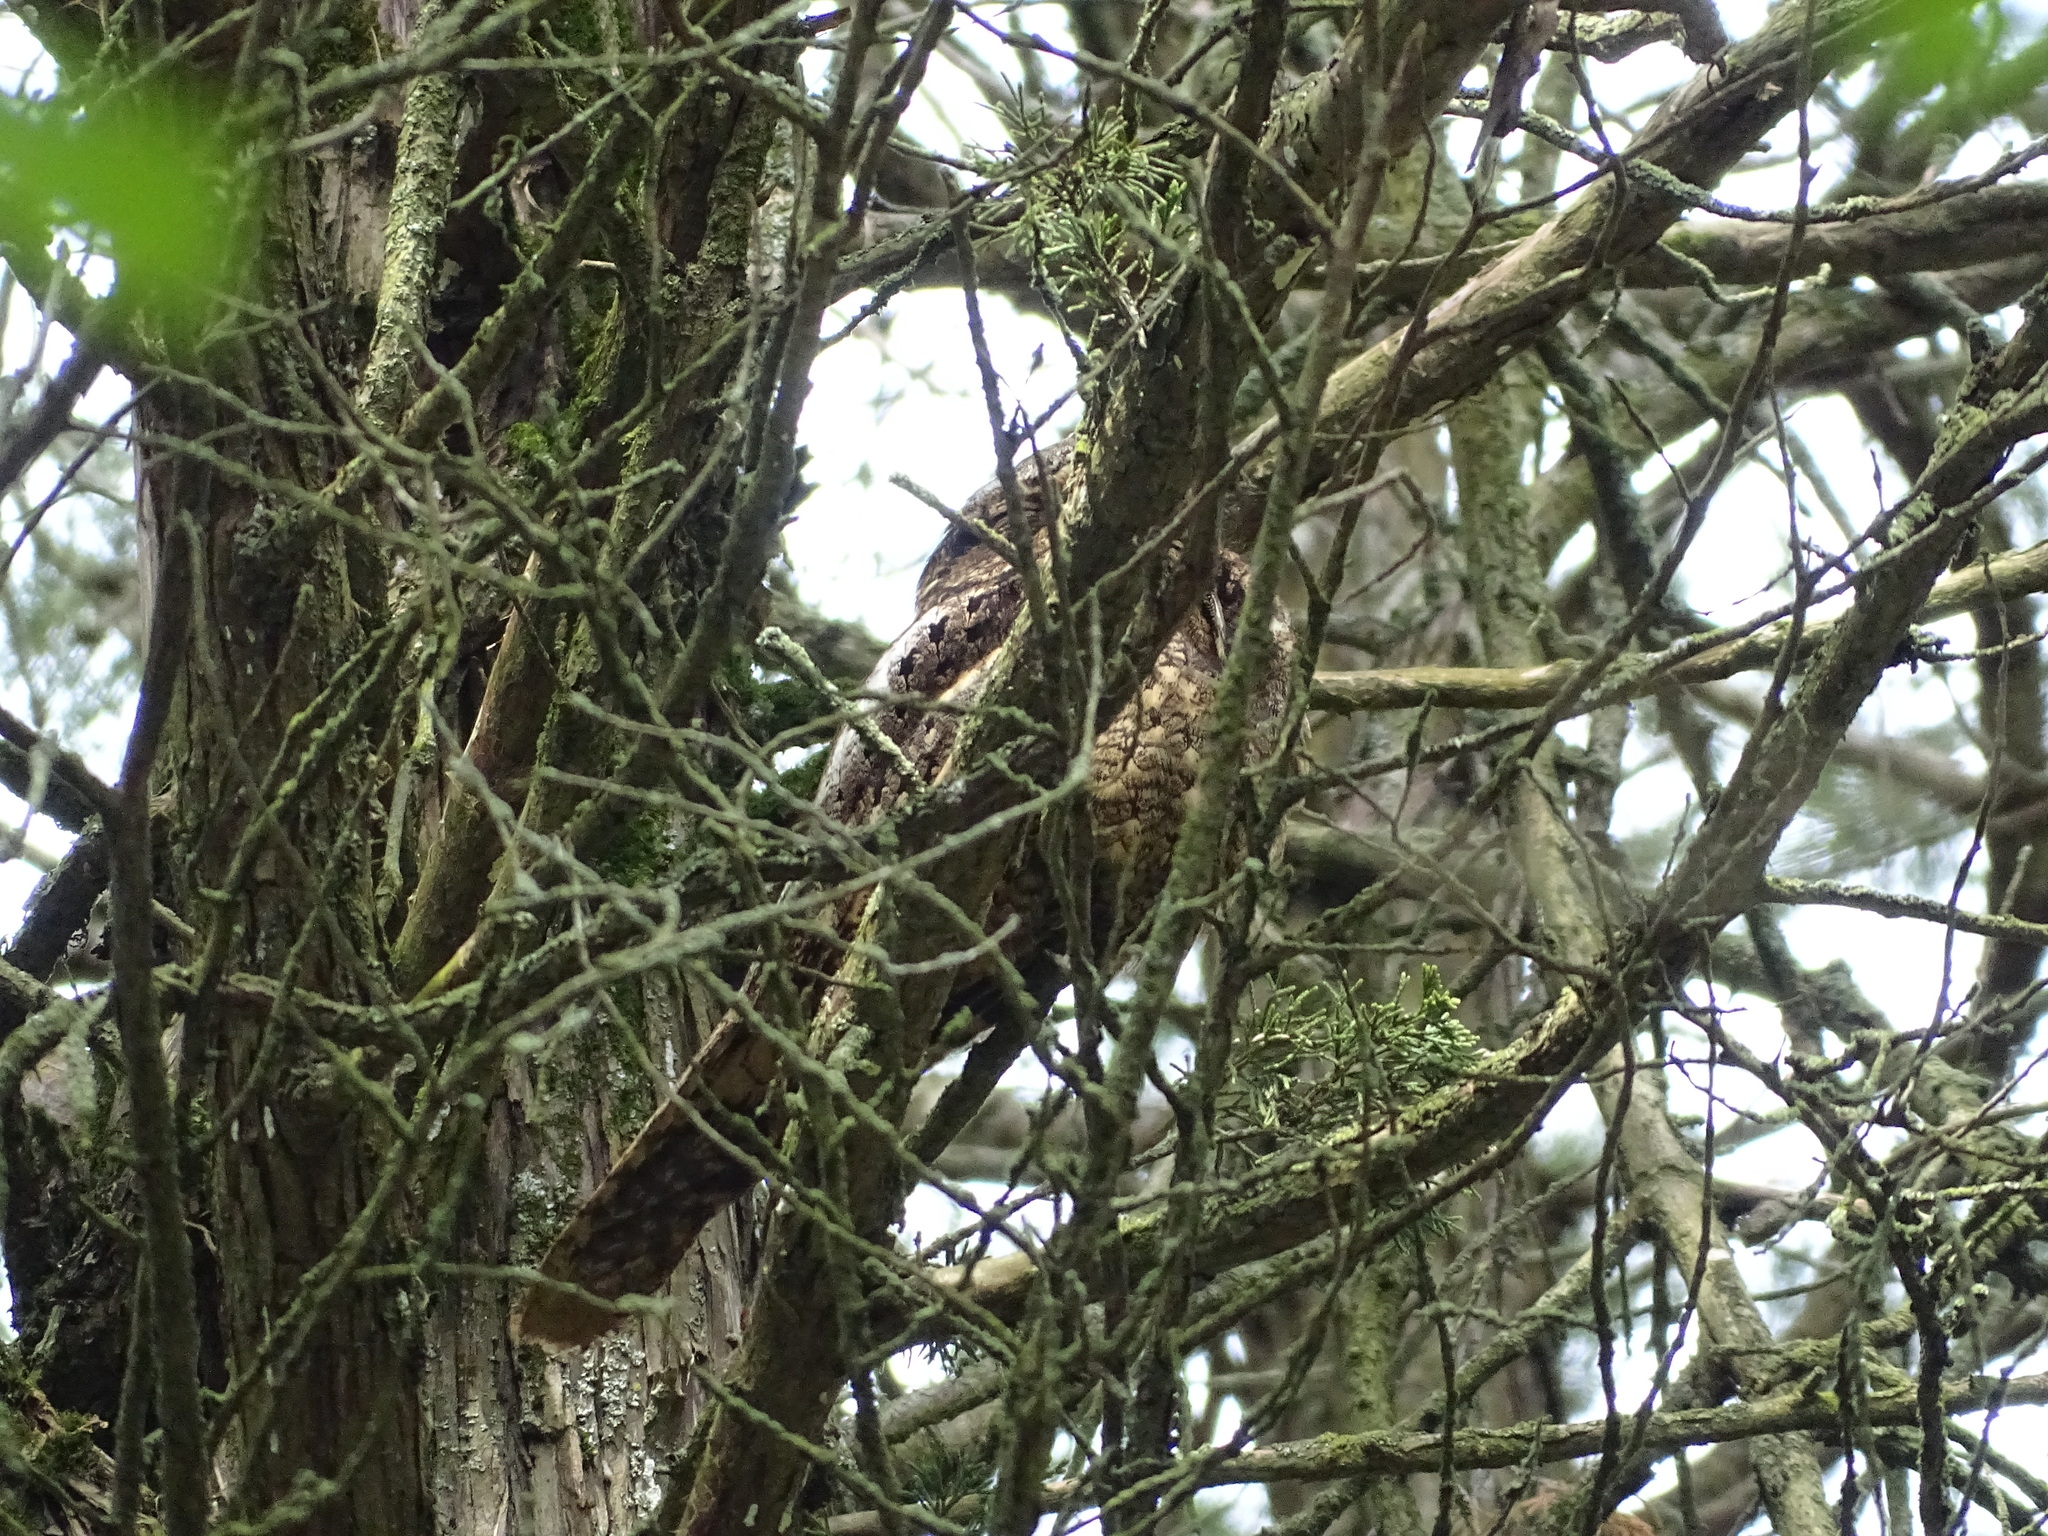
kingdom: Animalia
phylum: Chordata
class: Aves
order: Caprimulgiformes
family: Caprimulgidae
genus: Antrostomus
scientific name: Antrostomus carolinensis
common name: Chuck-will's-widow
